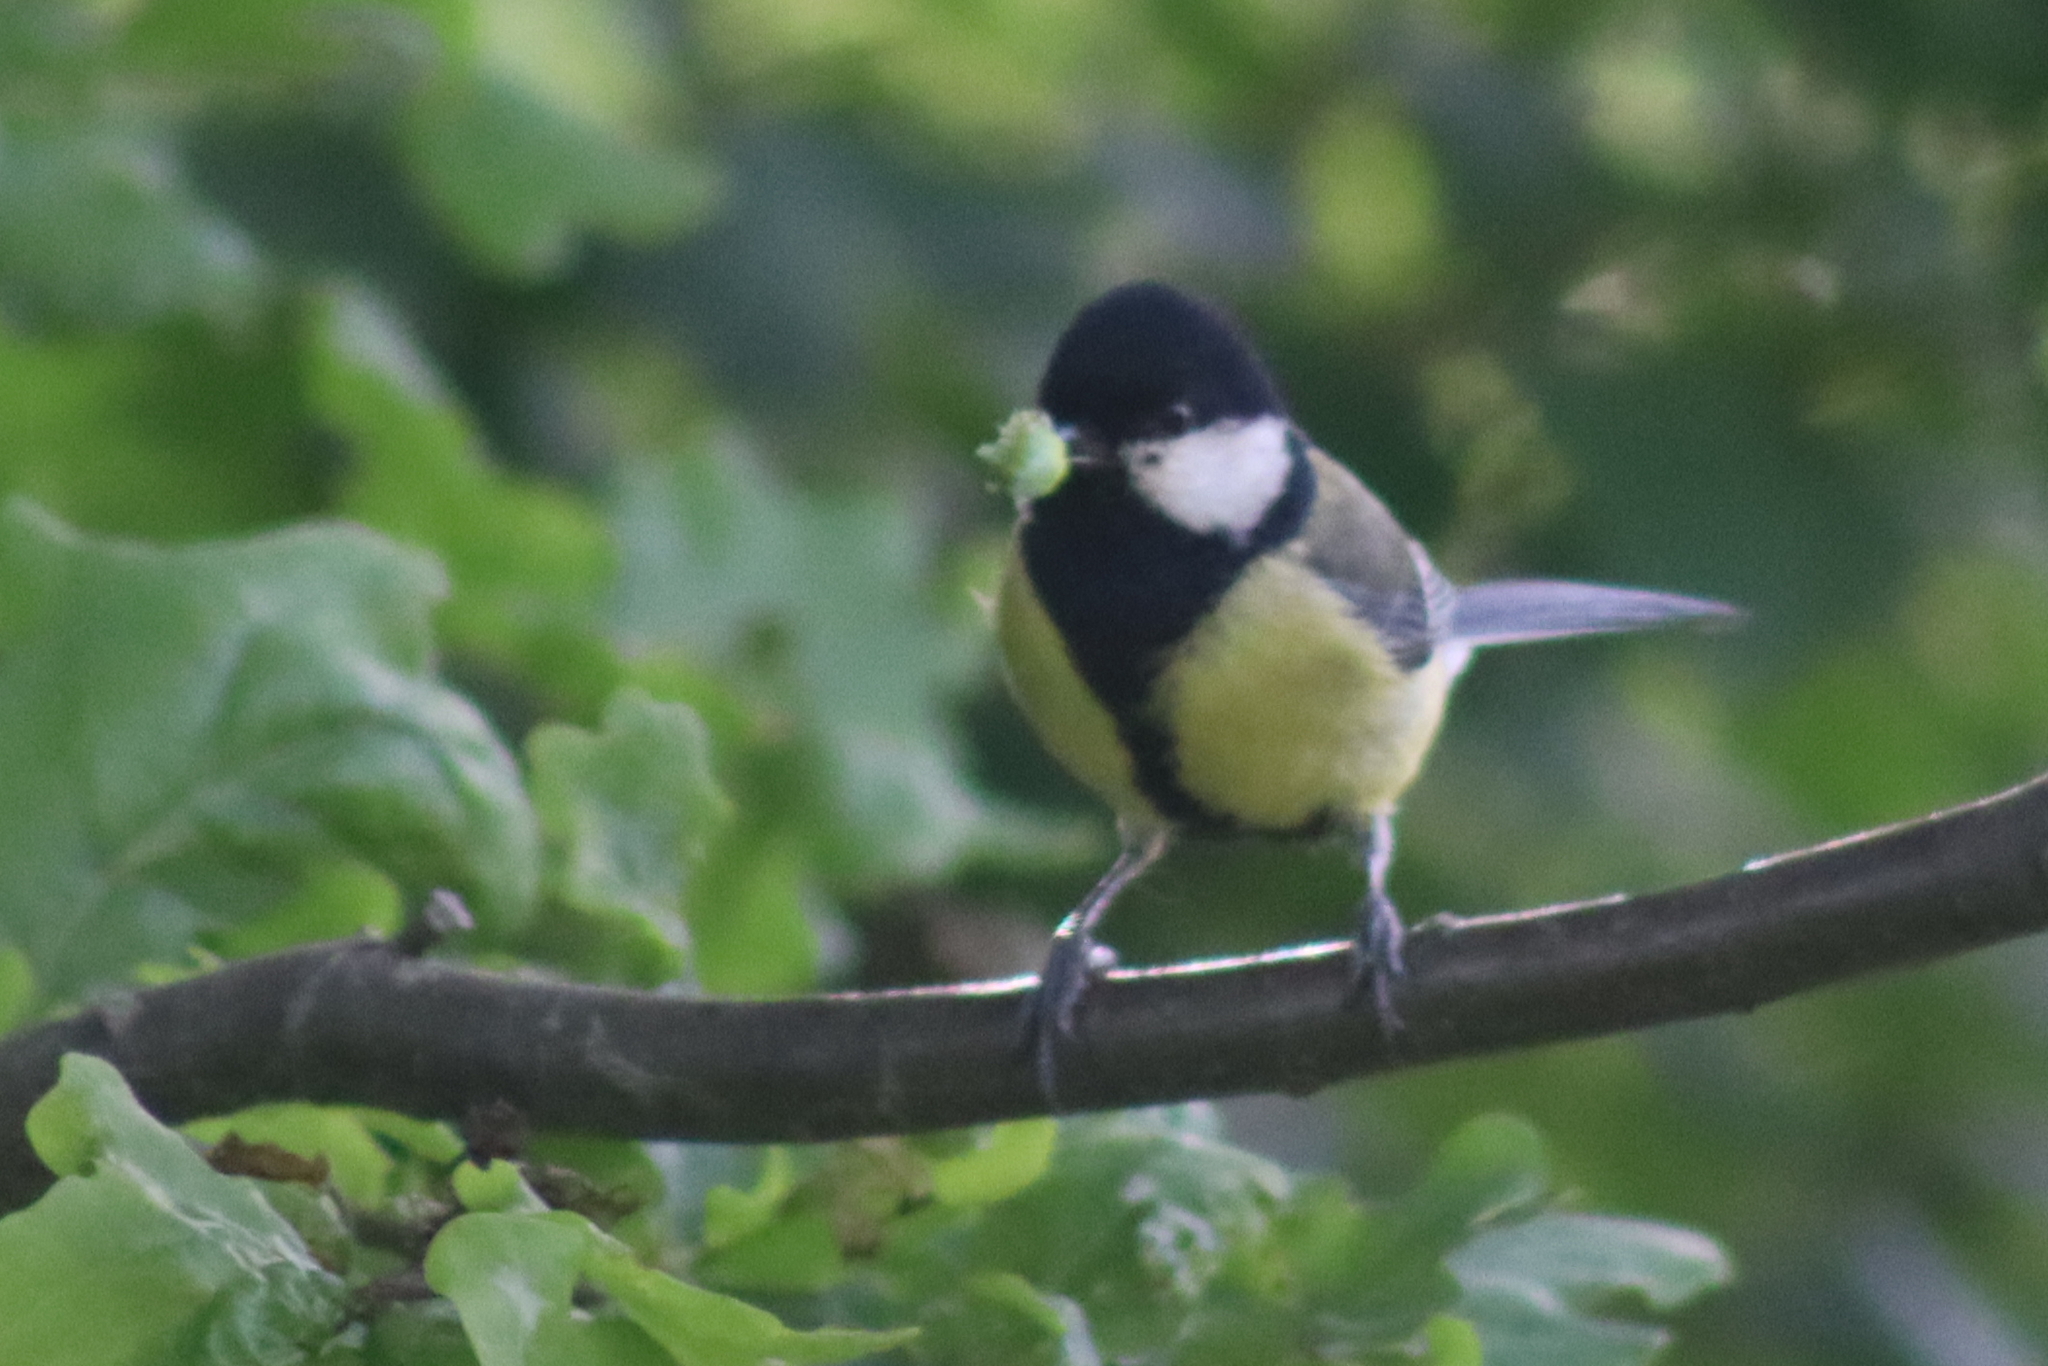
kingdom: Animalia
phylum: Chordata
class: Aves
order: Passeriformes
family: Paridae
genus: Parus
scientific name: Parus major
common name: Great tit
